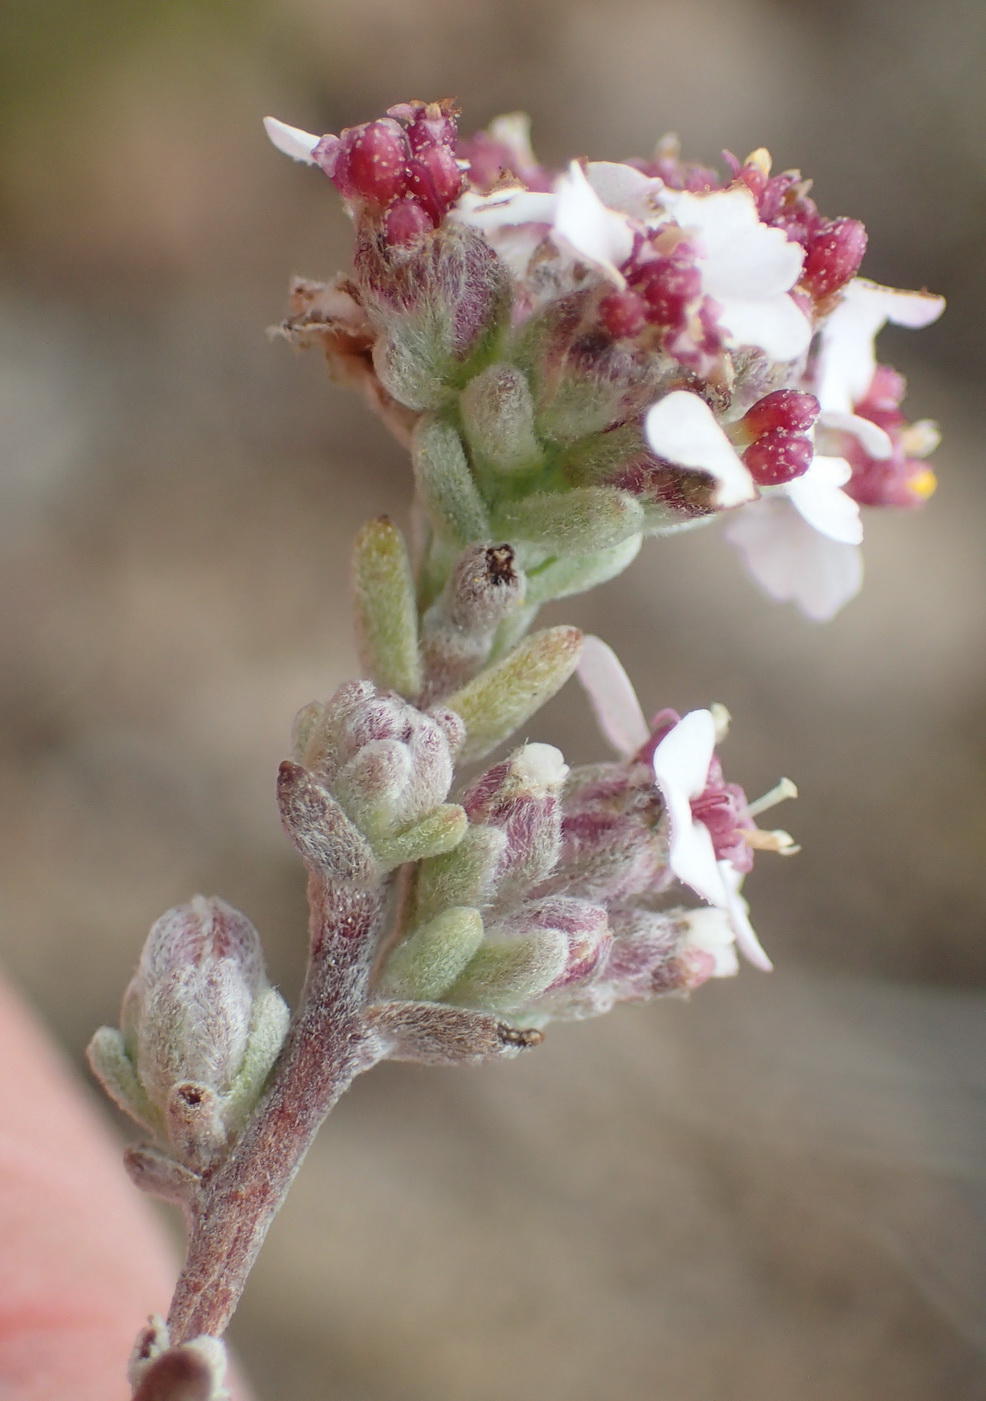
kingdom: Plantae
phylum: Tracheophyta
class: Magnoliopsida
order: Asterales
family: Asteraceae
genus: Eriocephalus
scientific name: Eriocephalus africanus
